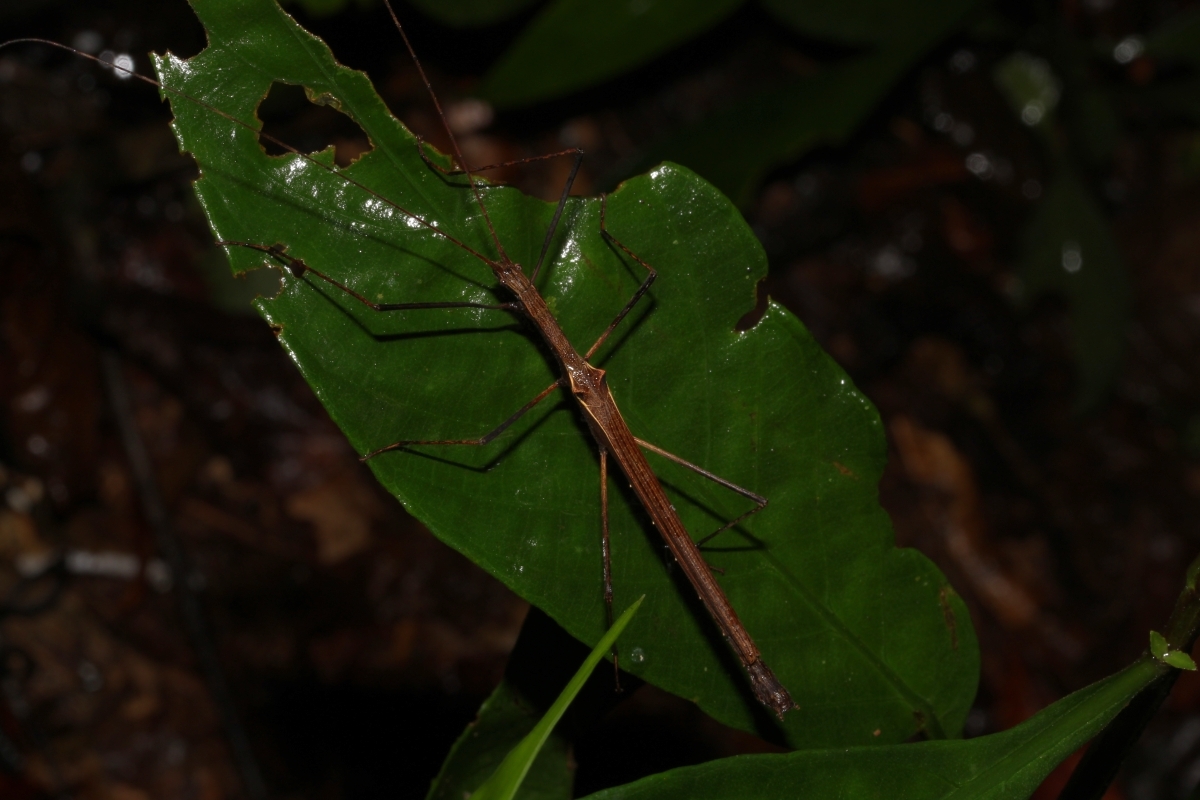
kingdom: Animalia
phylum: Arthropoda
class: Insecta
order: Phasmida
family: Pseudophasmatidae
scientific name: Pseudophasmatidae
